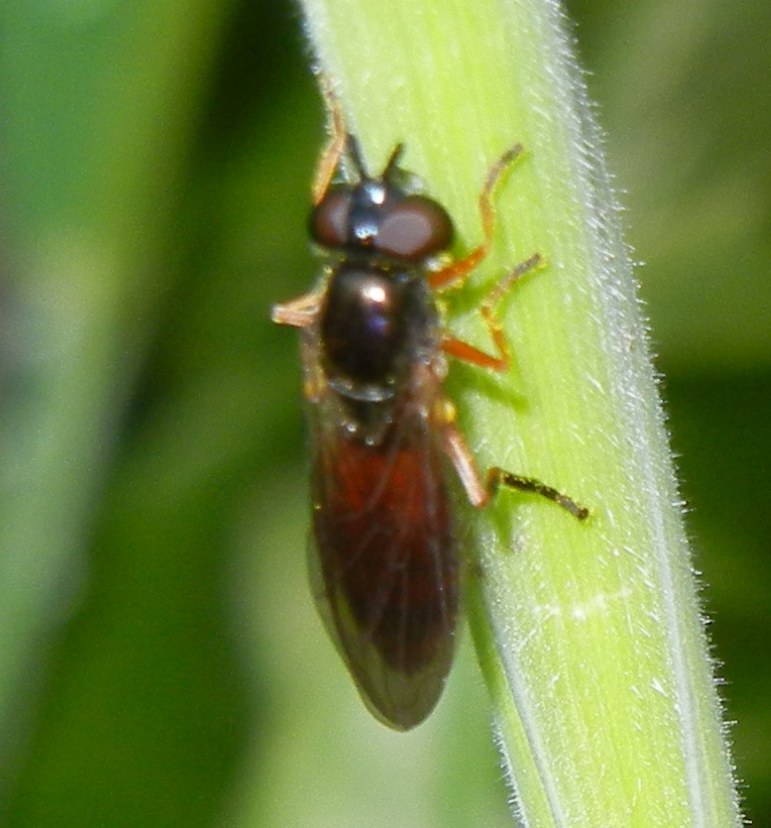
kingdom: Animalia
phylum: Arthropoda
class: Insecta
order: Diptera
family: Syrphidae
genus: Pyrophaena
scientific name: Pyrophaena granditarsa
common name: Hornhand sedgesitter
